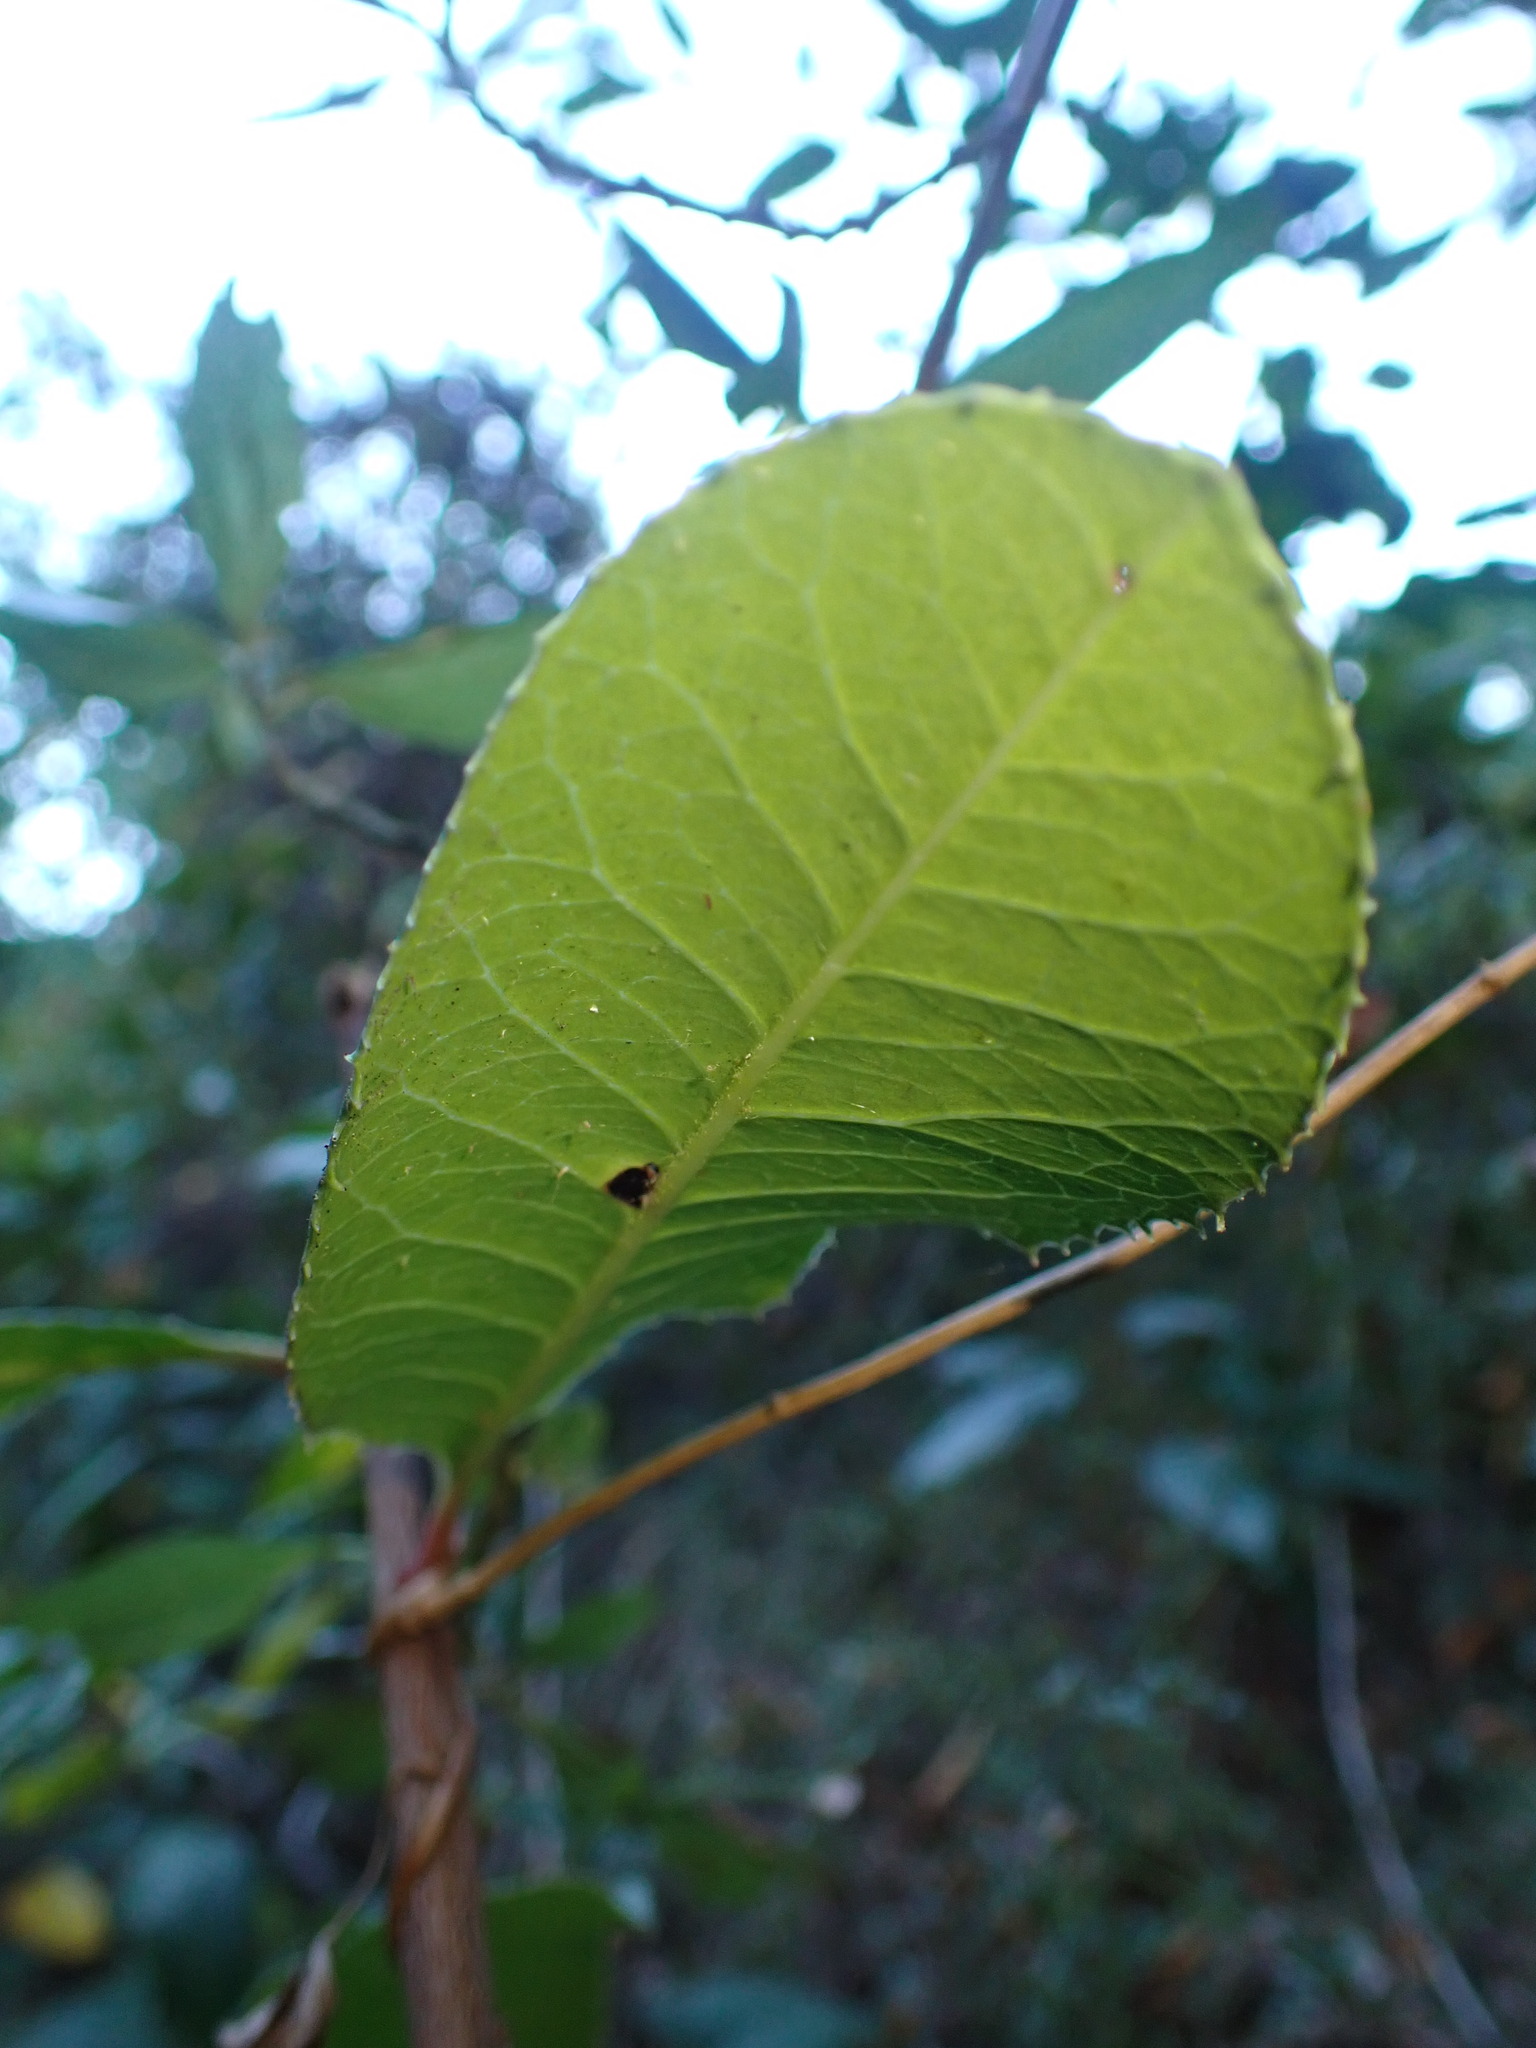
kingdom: Plantae
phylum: Tracheophyta
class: Magnoliopsida
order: Rosales
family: Rosaceae
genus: Heteromeles
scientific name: Heteromeles arbutifolia
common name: California-holly
